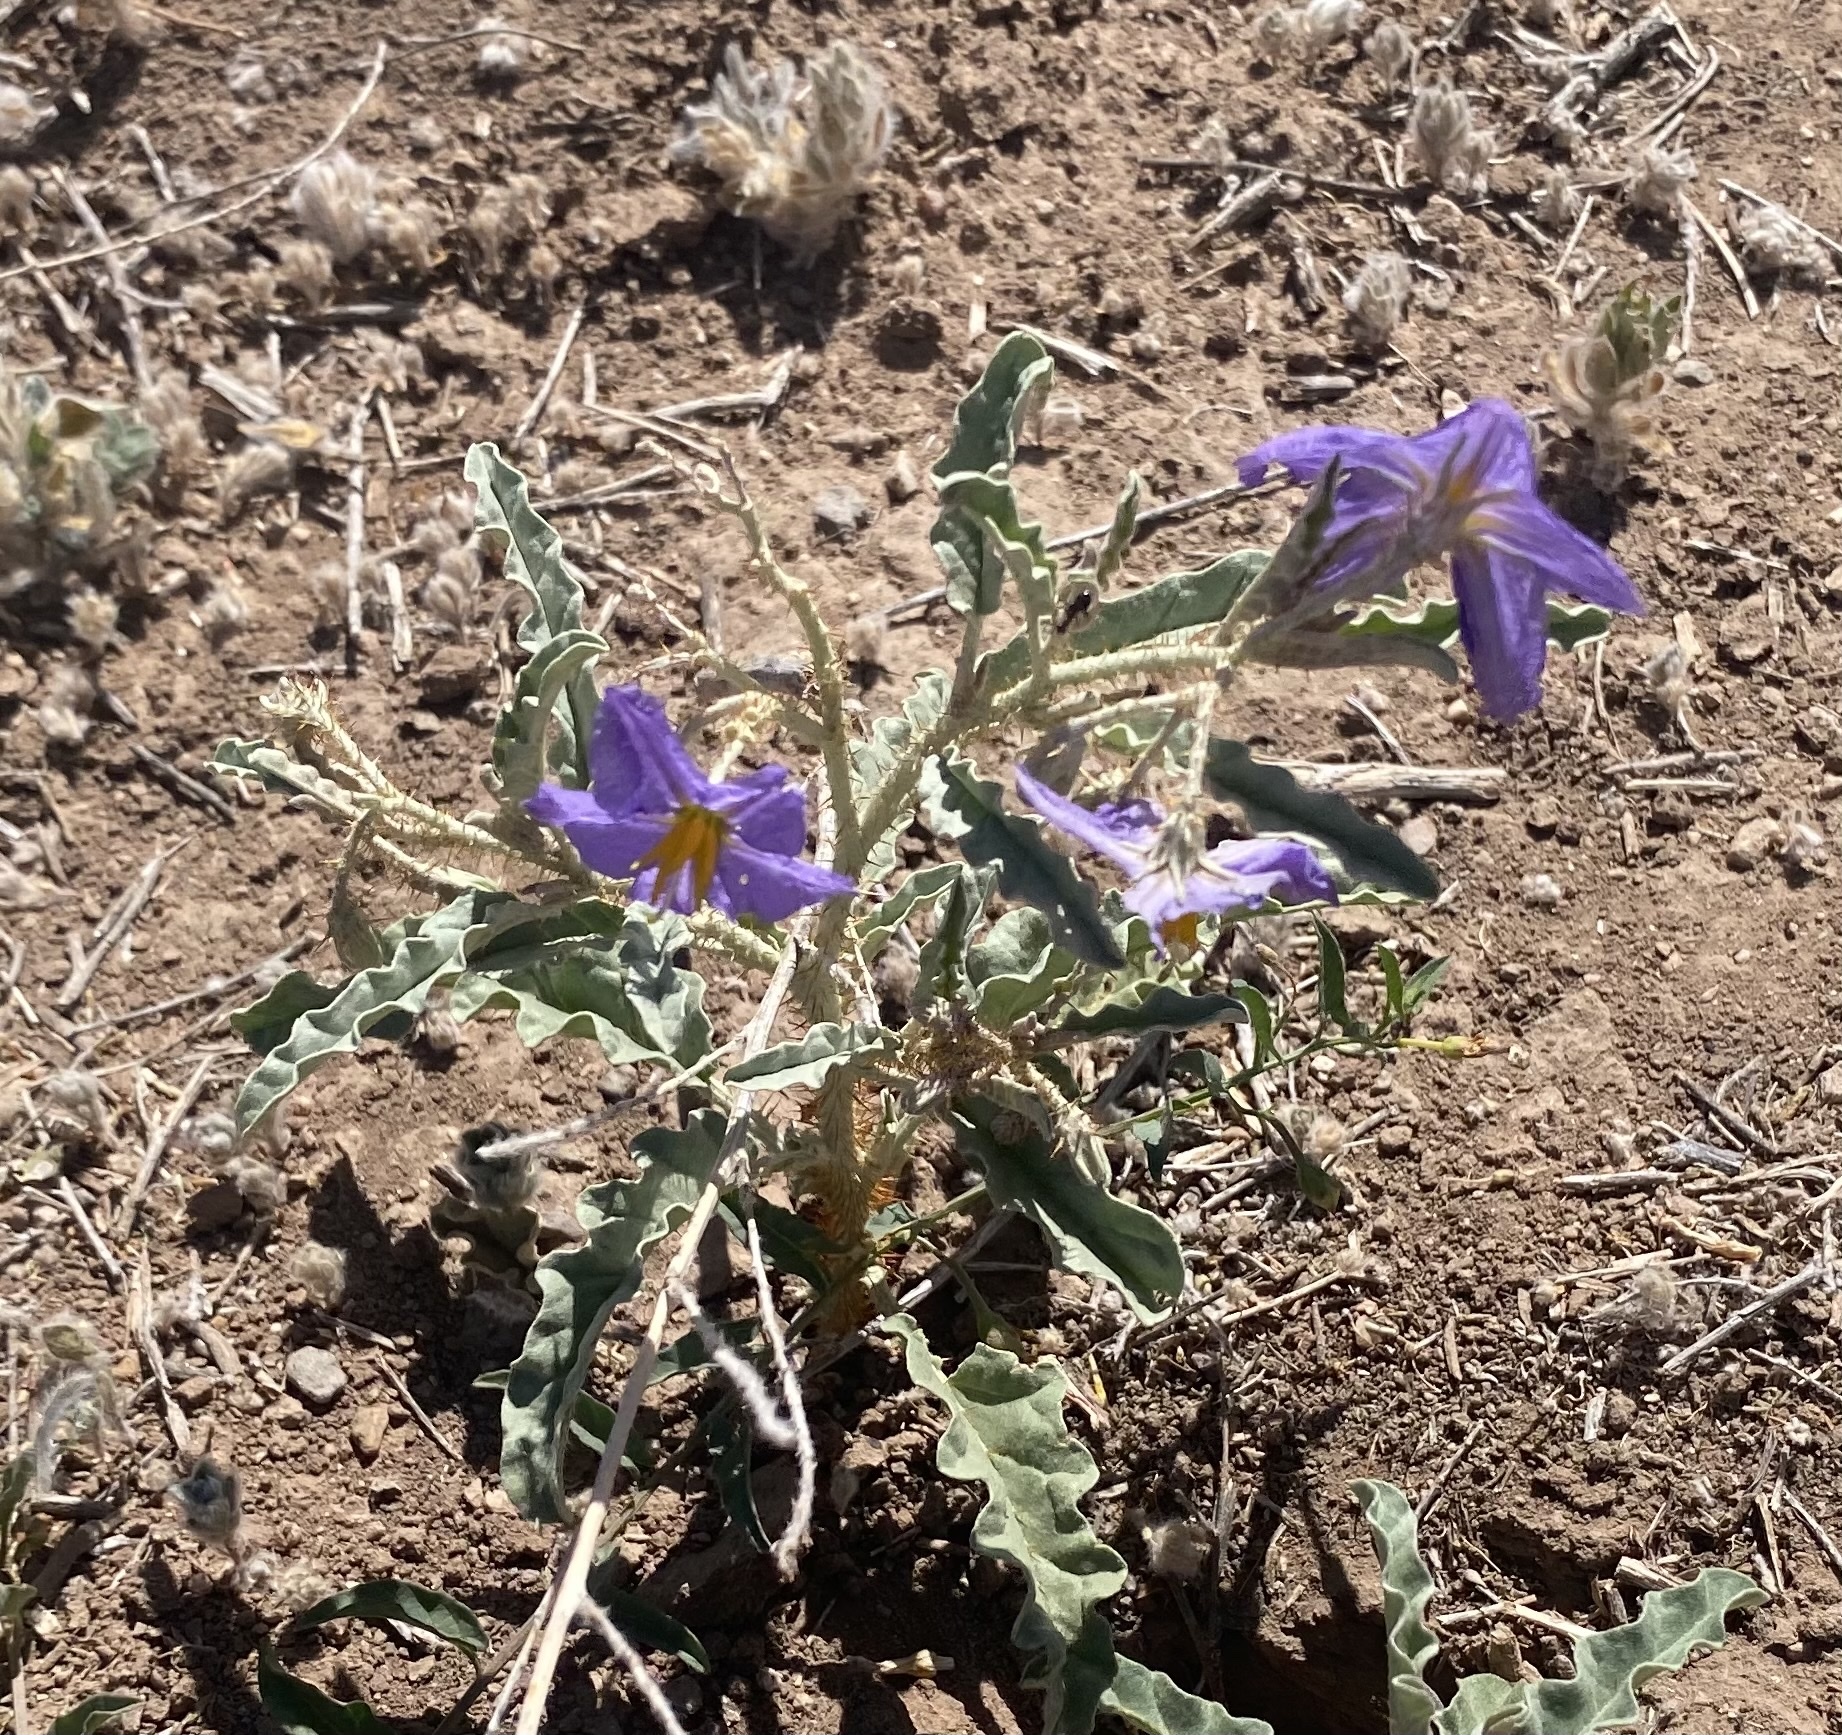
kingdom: Plantae
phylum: Tracheophyta
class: Magnoliopsida
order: Solanales
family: Solanaceae
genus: Solanum
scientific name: Solanum elaeagnifolium
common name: Silverleaf nightshade
